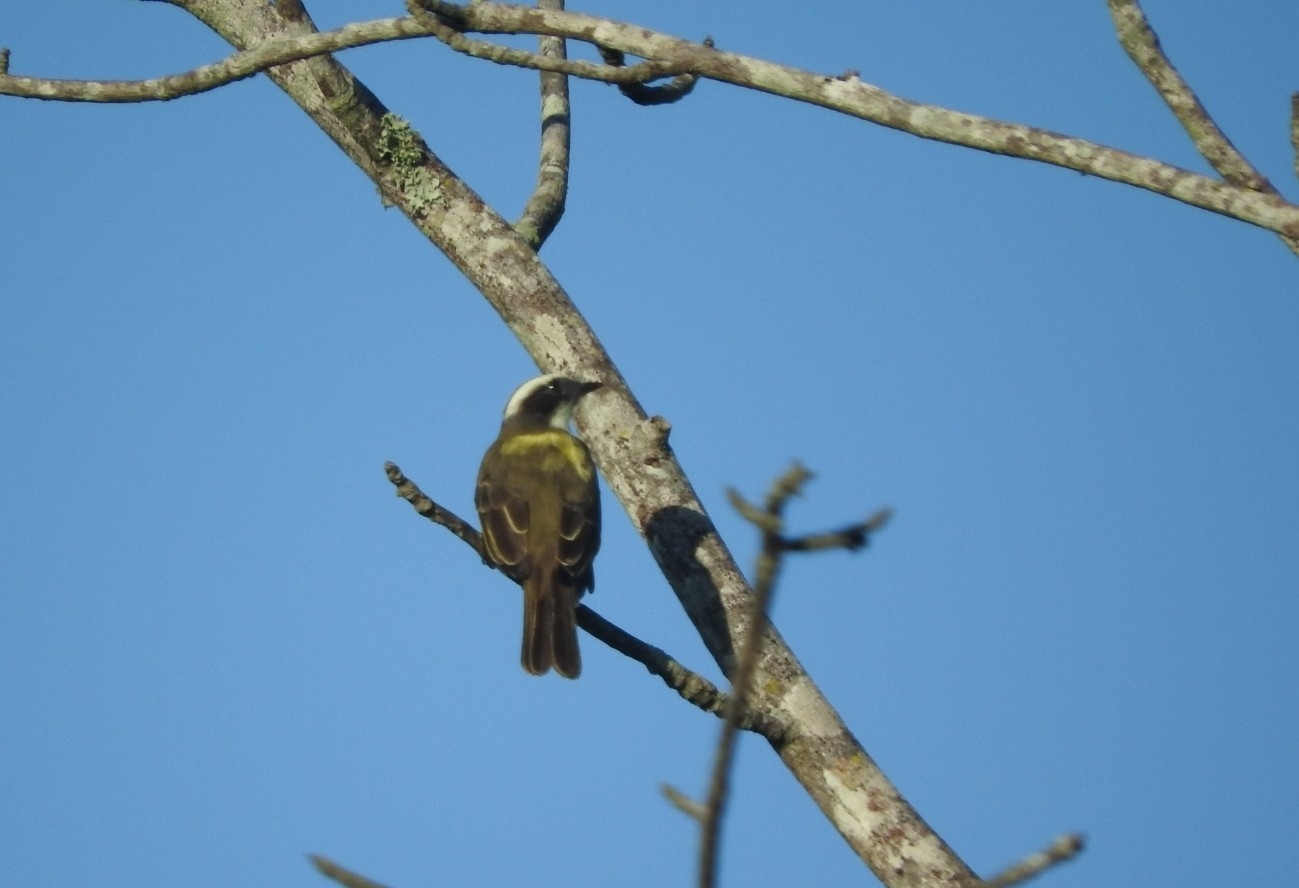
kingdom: Animalia
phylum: Chordata
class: Aves
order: Passeriformes
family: Tyrannidae
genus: Myiozetetes
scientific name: Myiozetetes similis
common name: Social flycatcher
